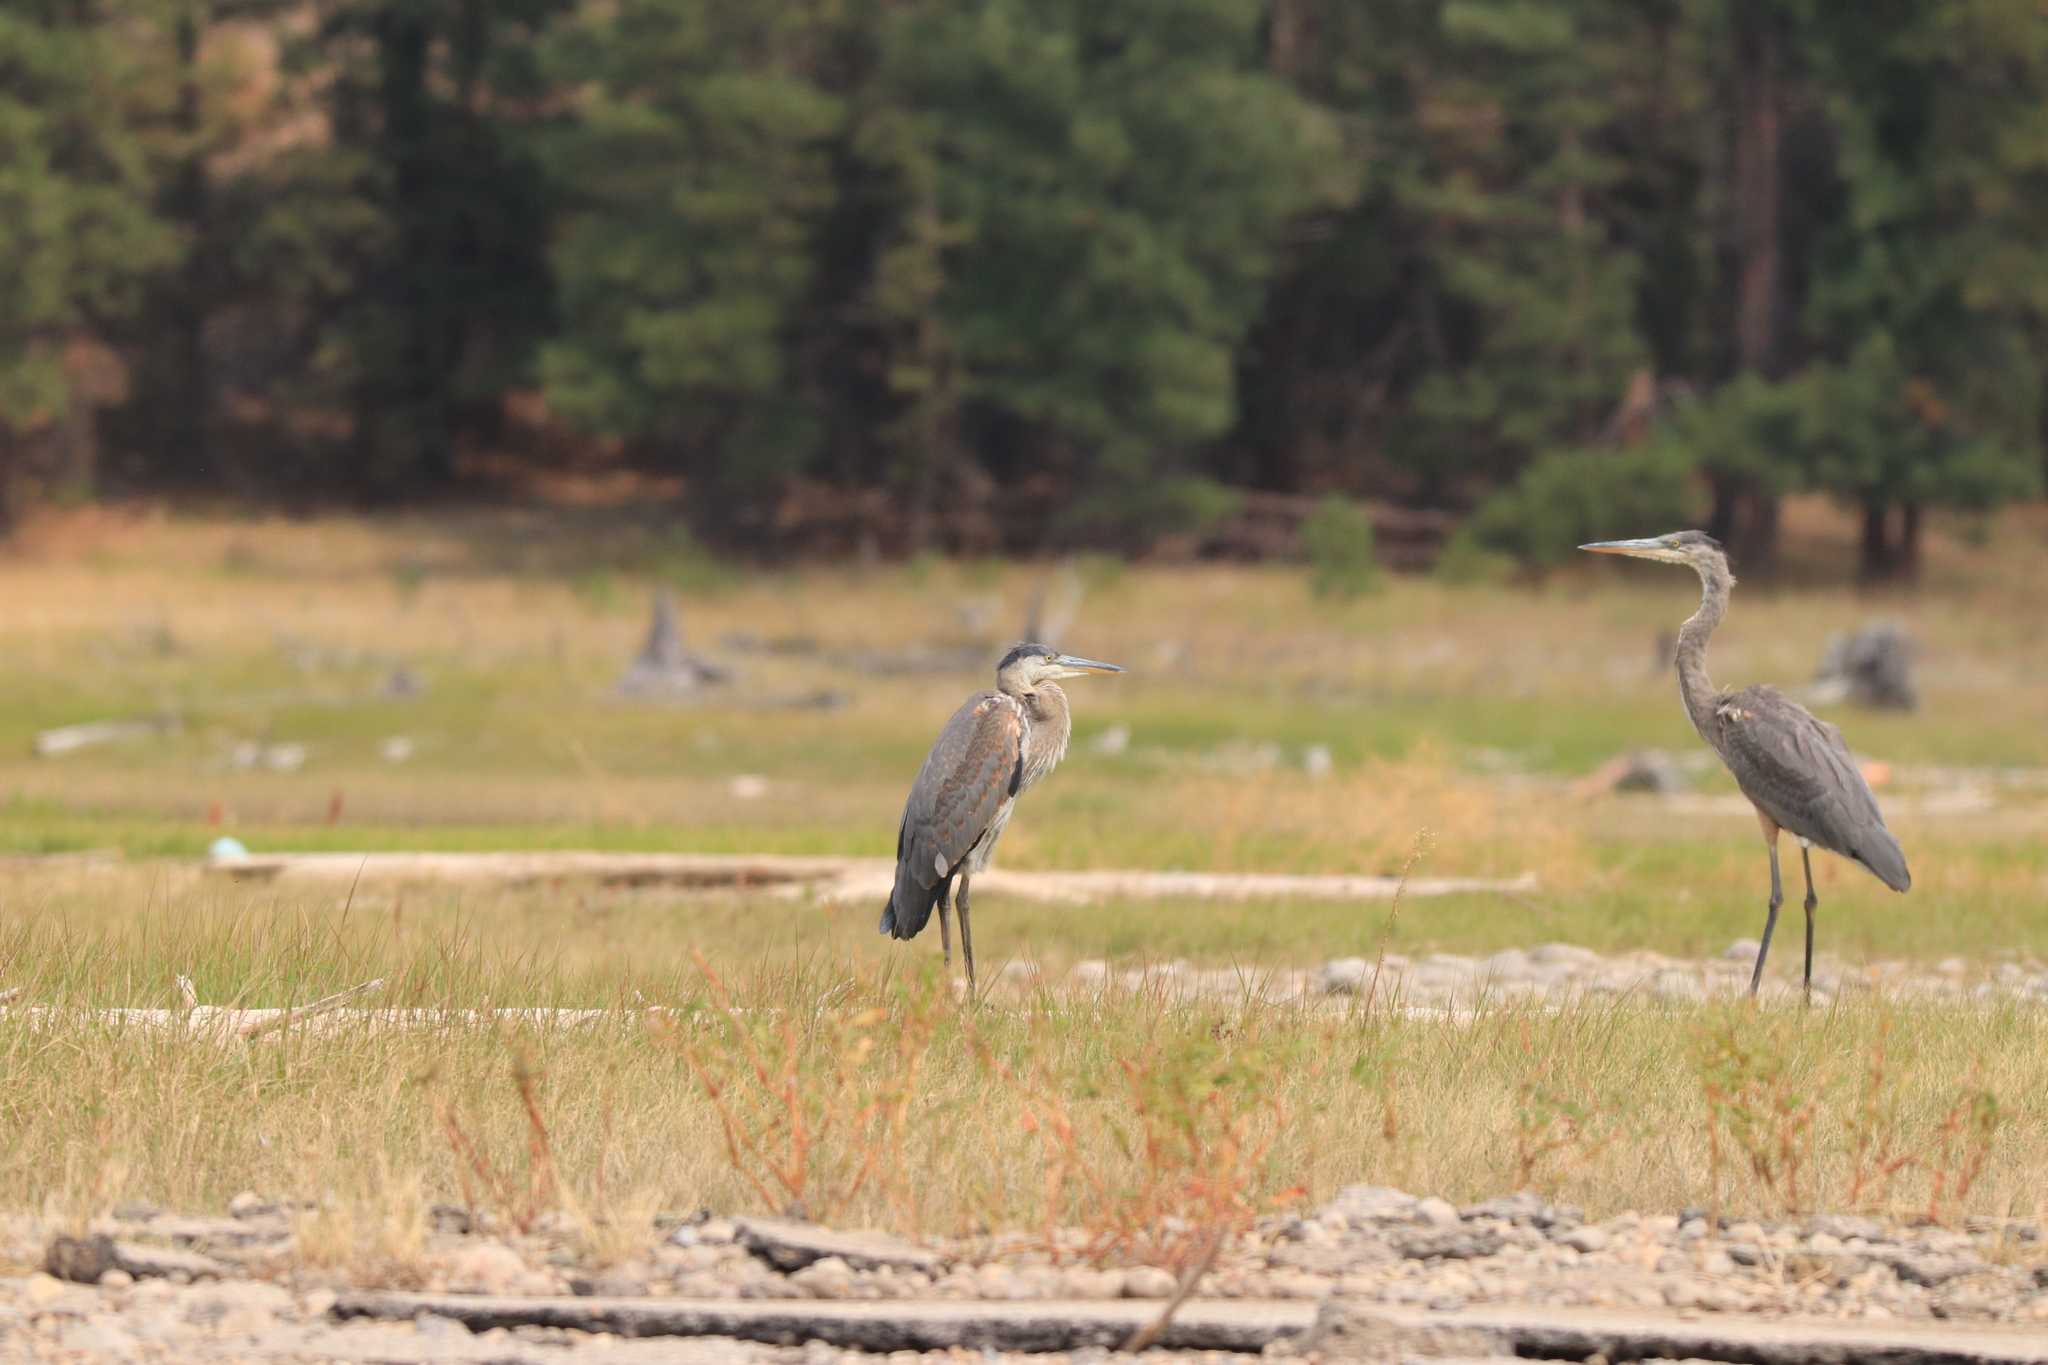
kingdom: Animalia
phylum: Chordata
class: Aves
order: Pelecaniformes
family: Ardeidae
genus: Ardea
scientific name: Ardea herodias
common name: Great blue heron
